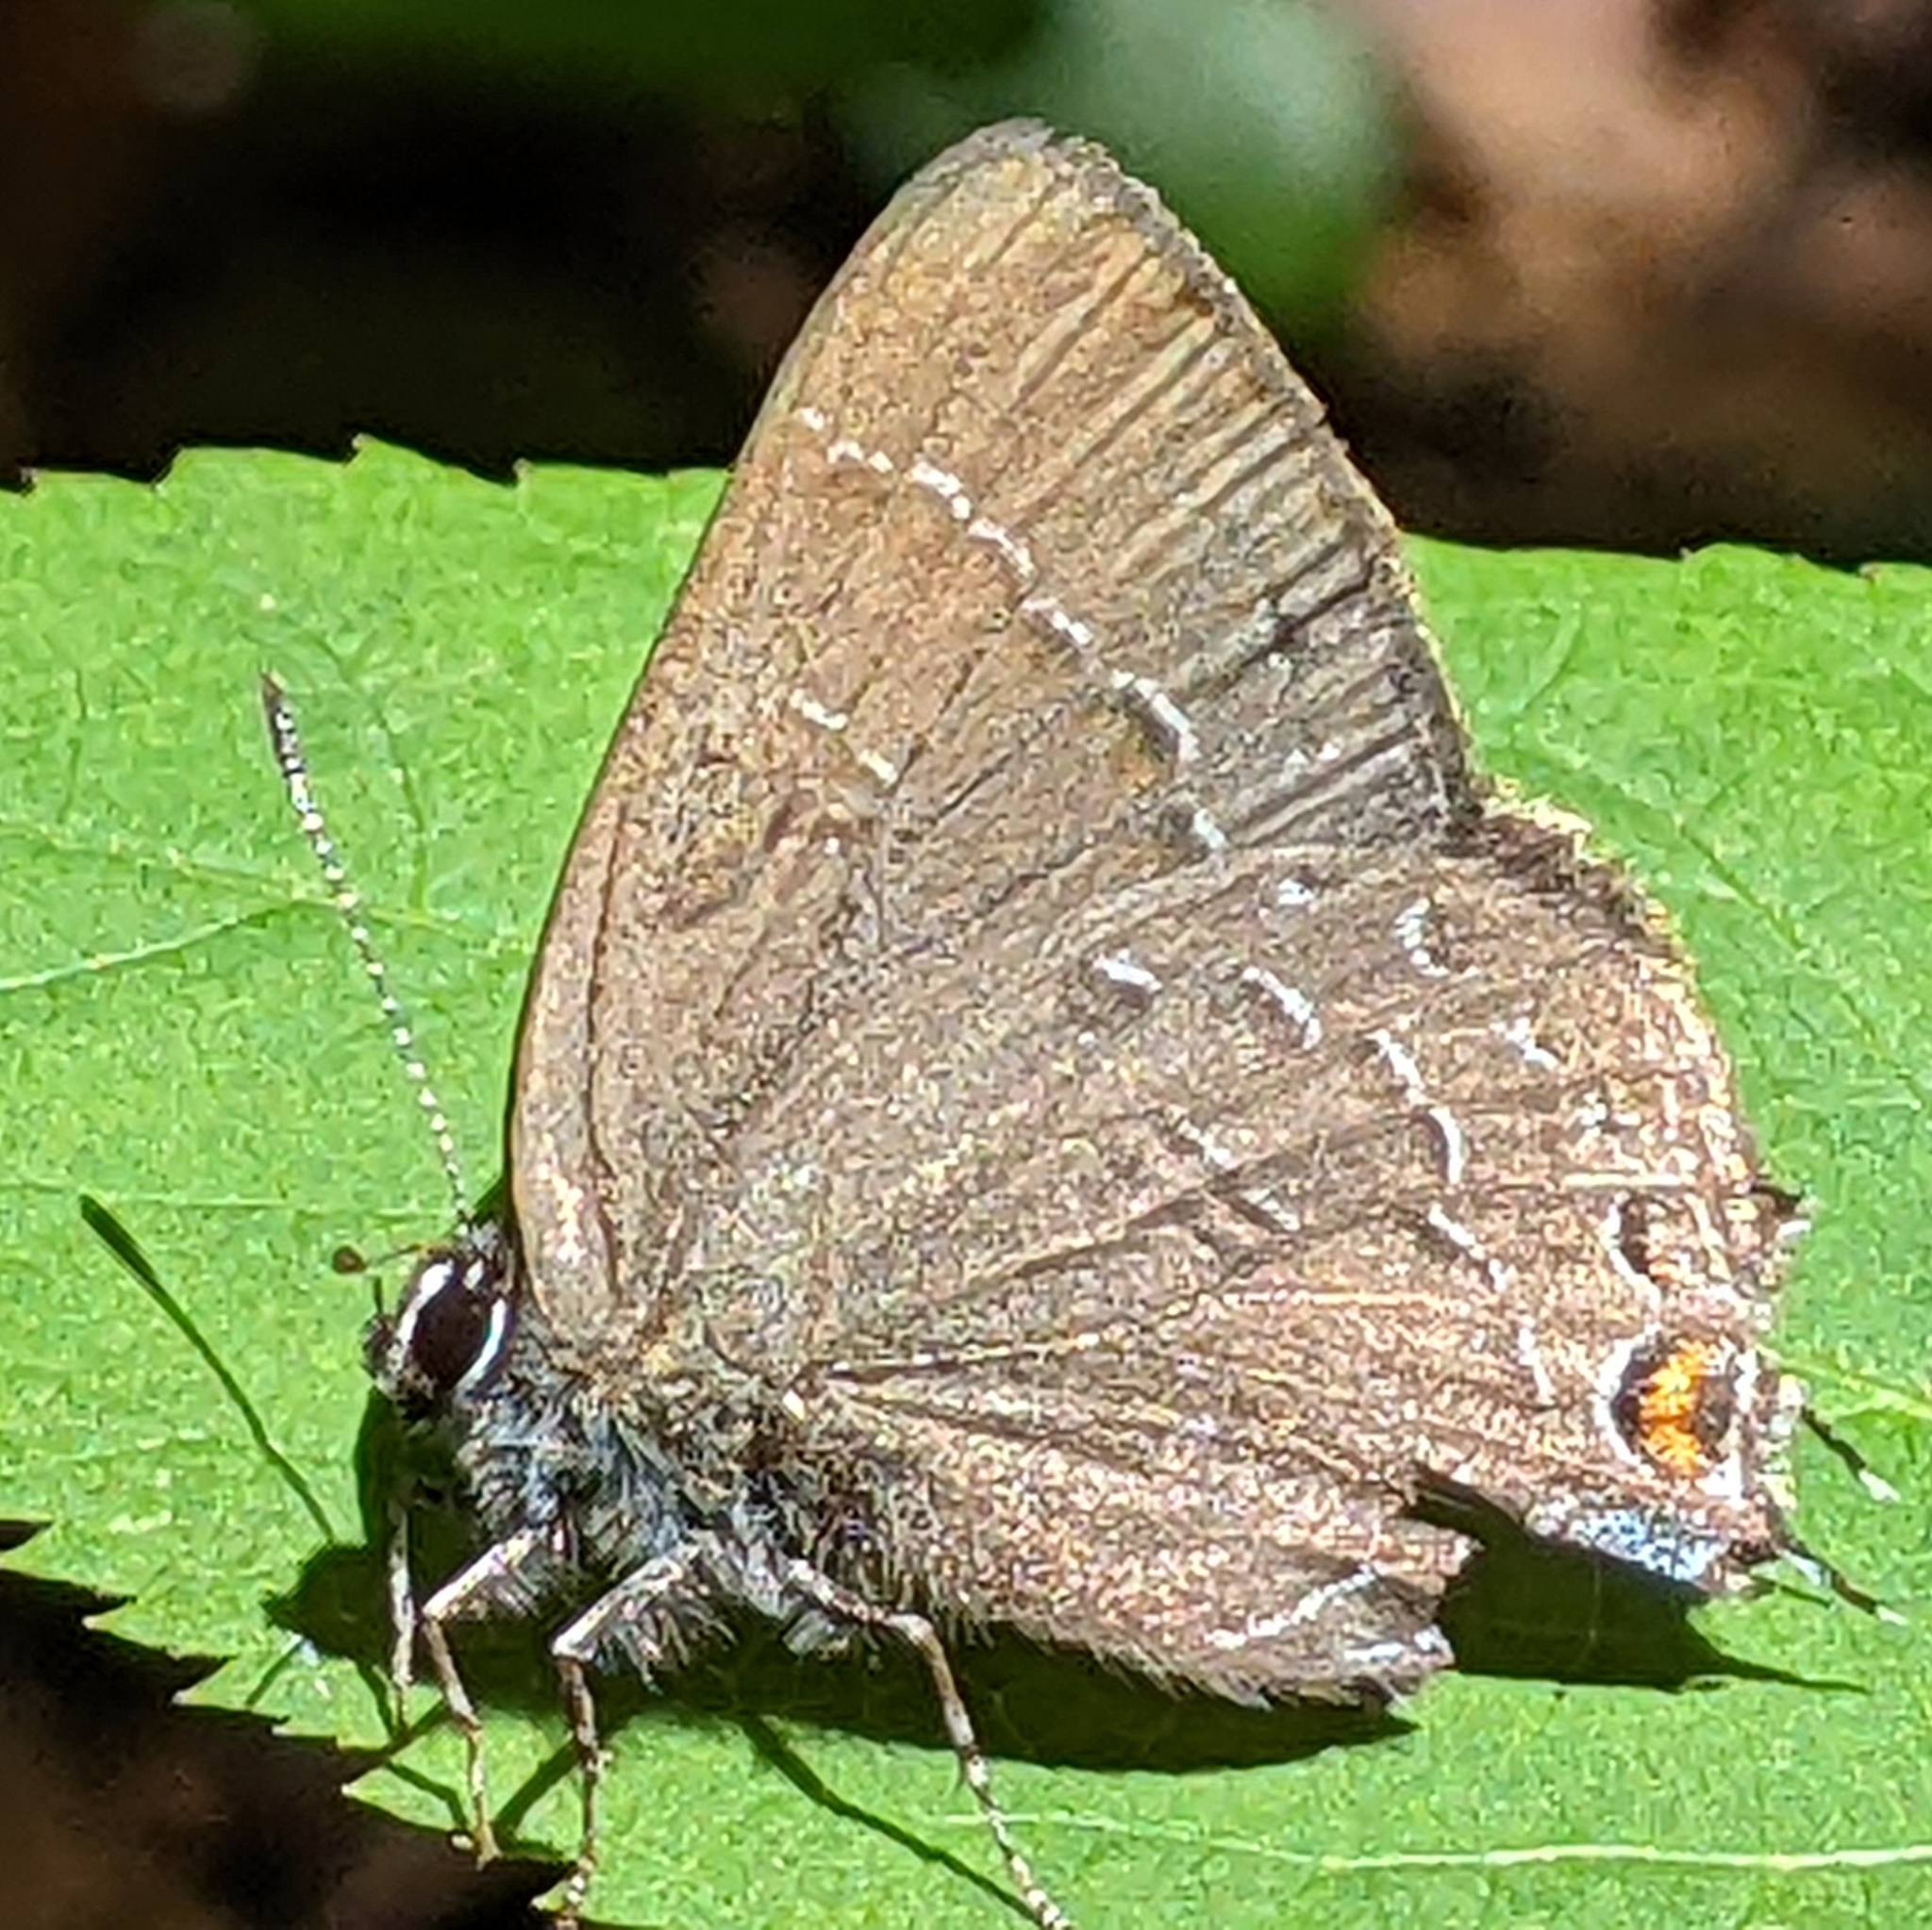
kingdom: Animalia
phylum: Arthropoda
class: Insecta
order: Lepidoptera
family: Lycaenidae
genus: Satyrium
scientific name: Satyrium calanus
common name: Banded hairstreak
